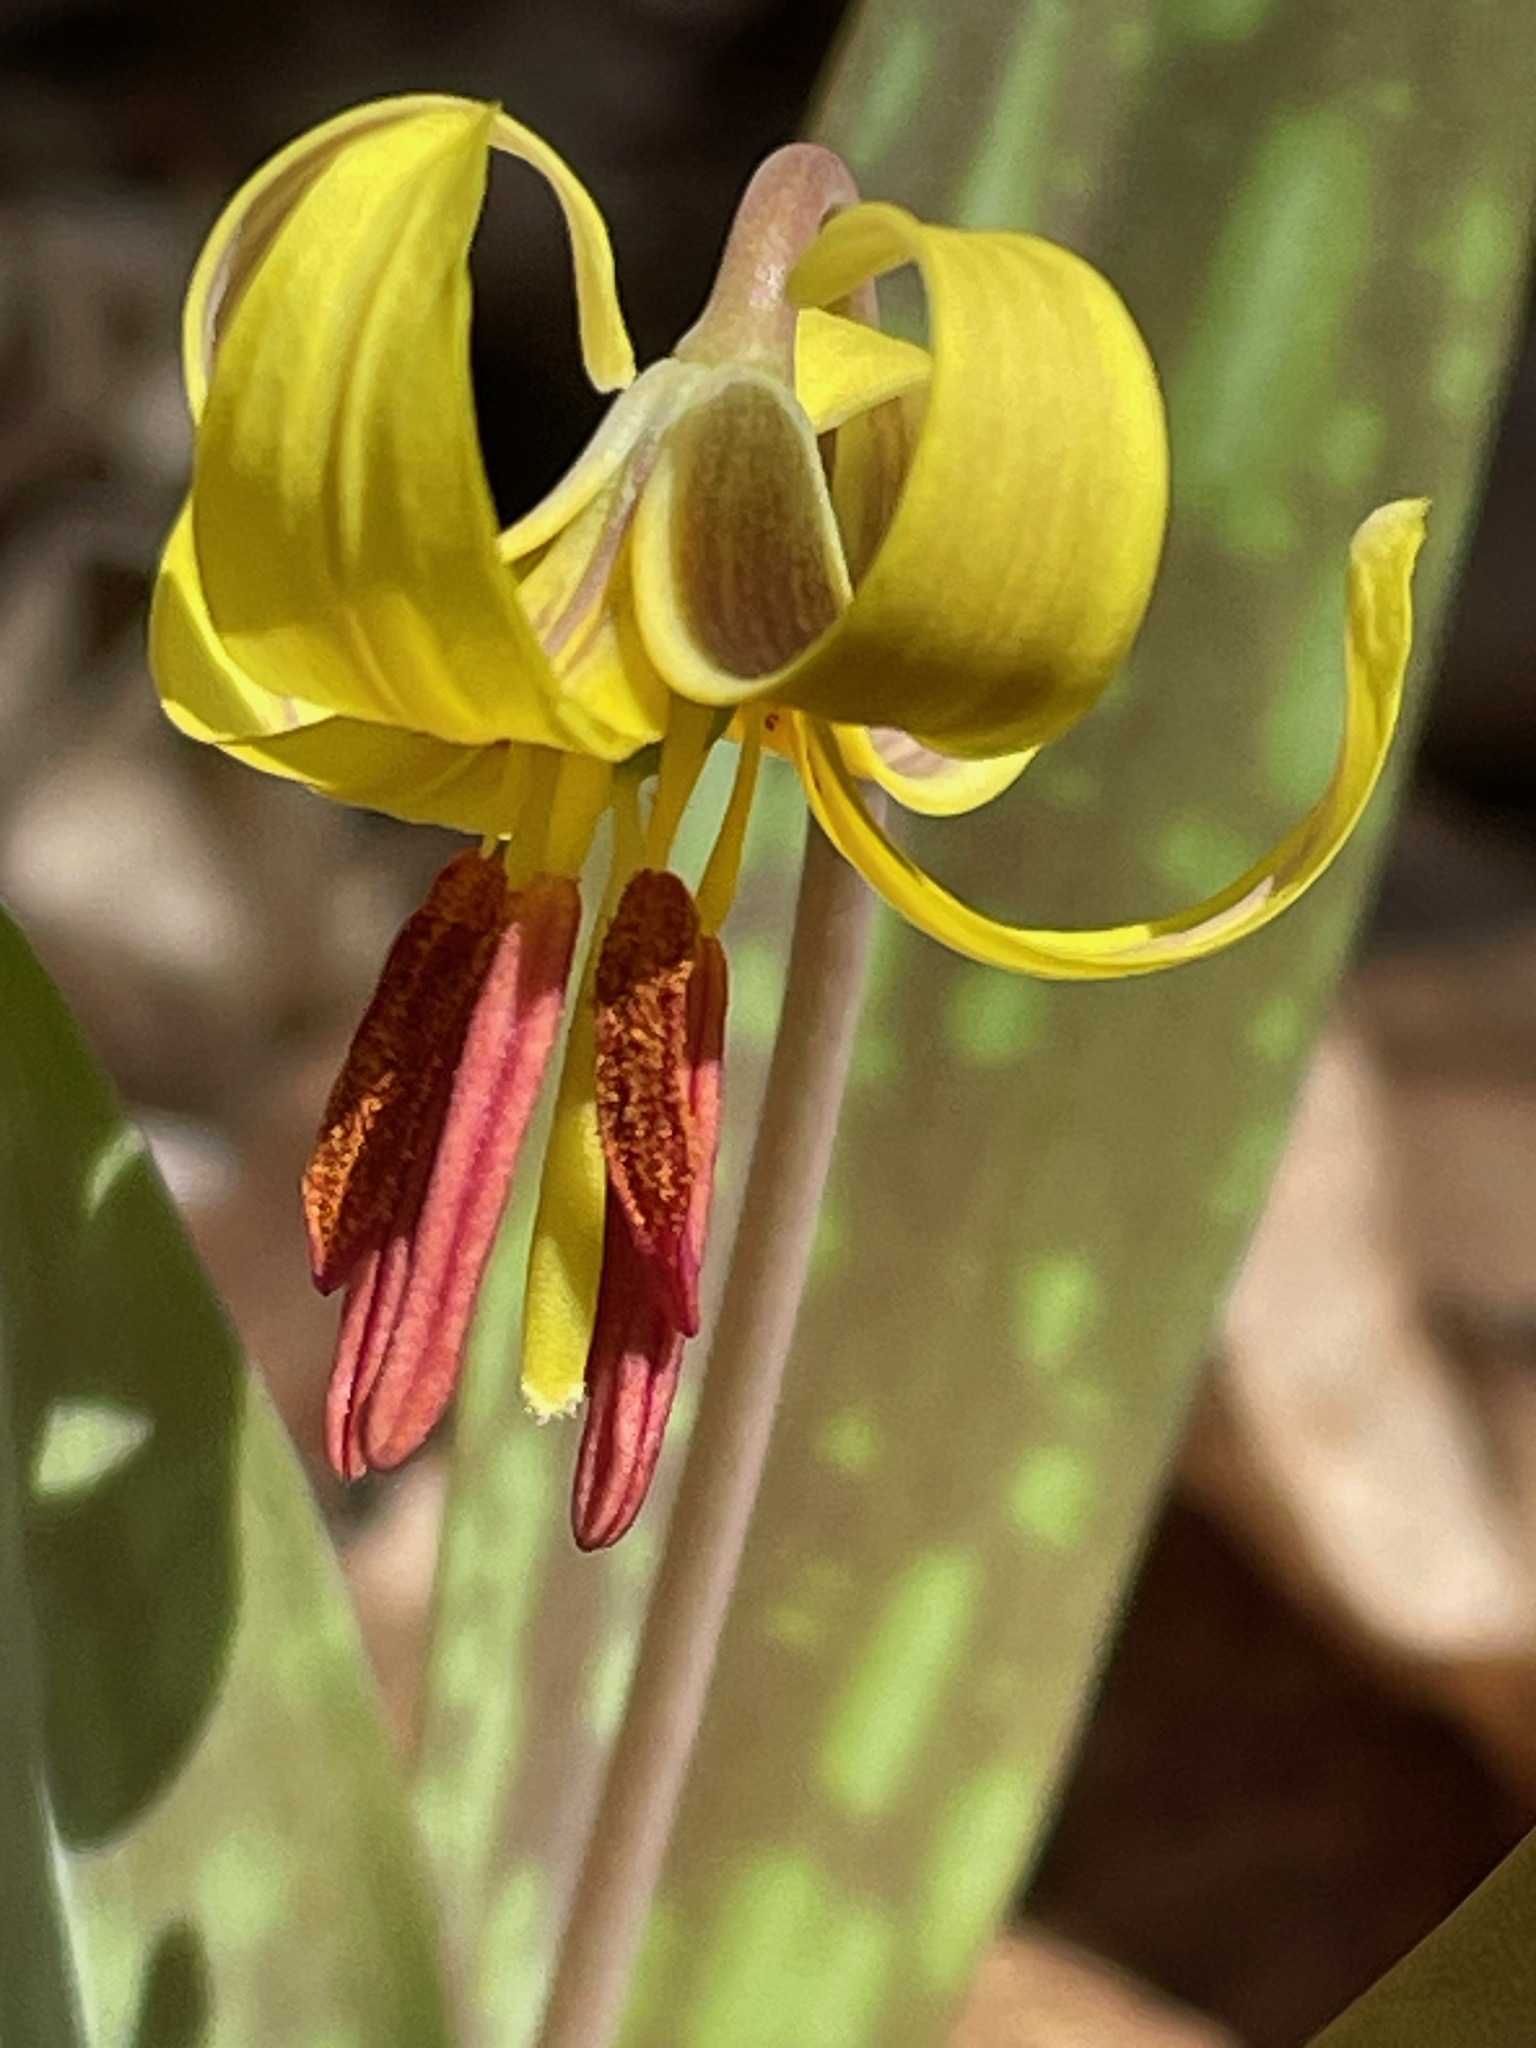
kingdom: Plantae
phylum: Tracheophyta
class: Liliopsida
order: Liliales
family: Liliaceae
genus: Erythronium
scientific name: Erythronium americanum
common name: Yellow adder's-tongue
